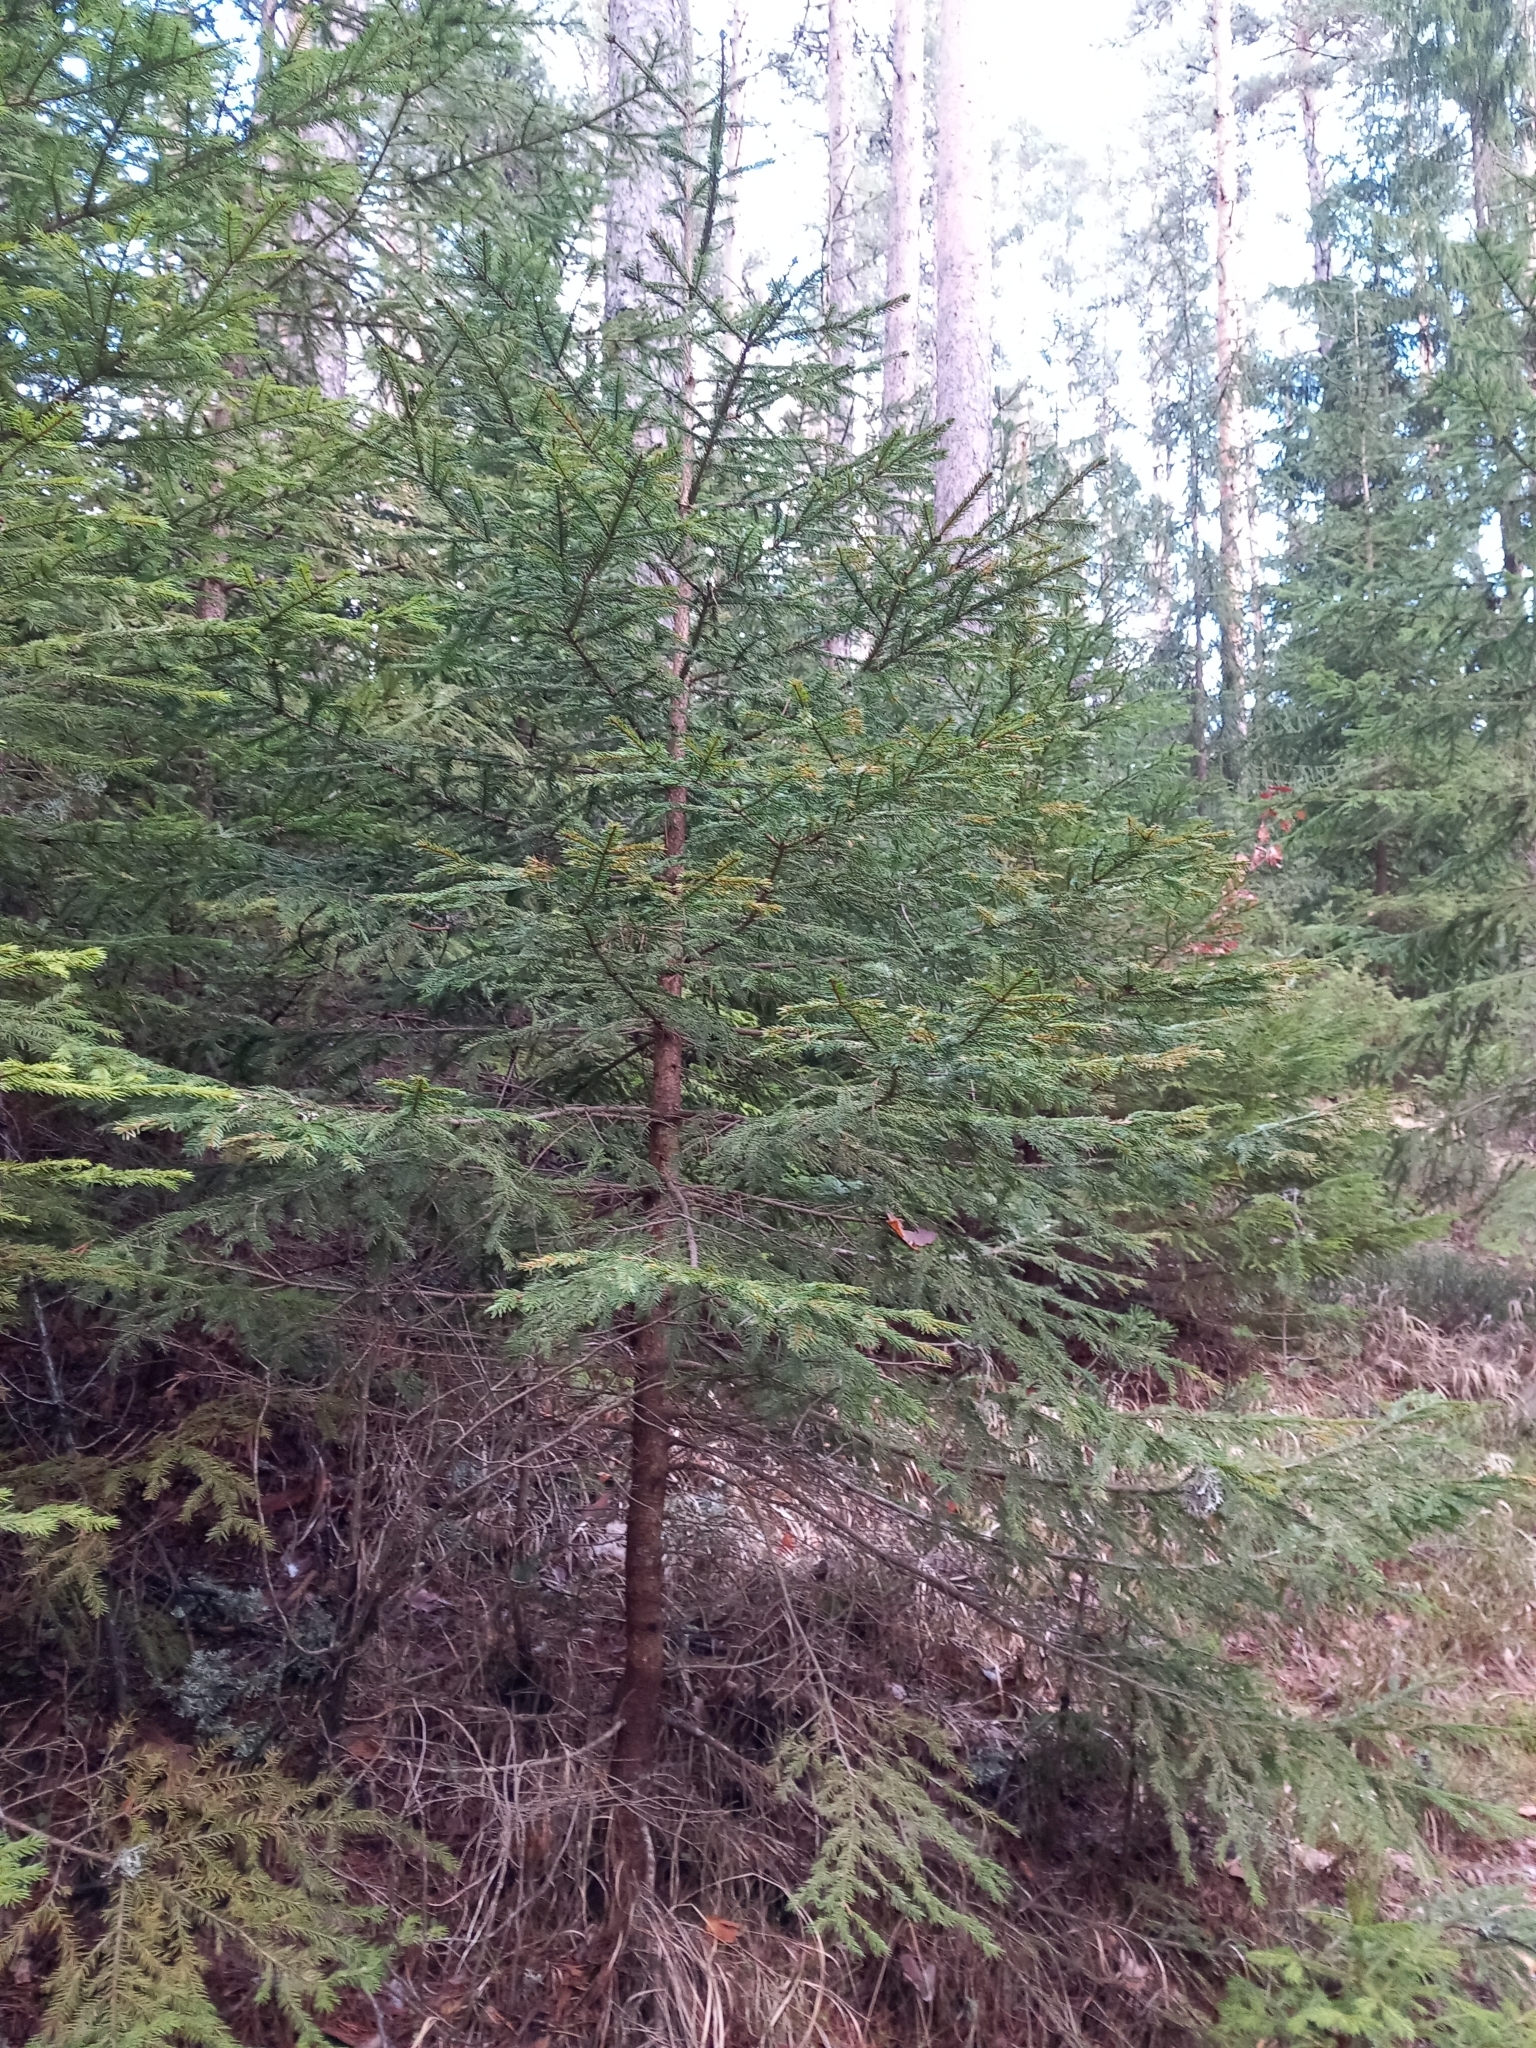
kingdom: Plantae
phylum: Tracheophyta
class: Pinopsida
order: Pinales
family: Pinaceae
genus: Picea
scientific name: Picea abies
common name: Norway spruce
